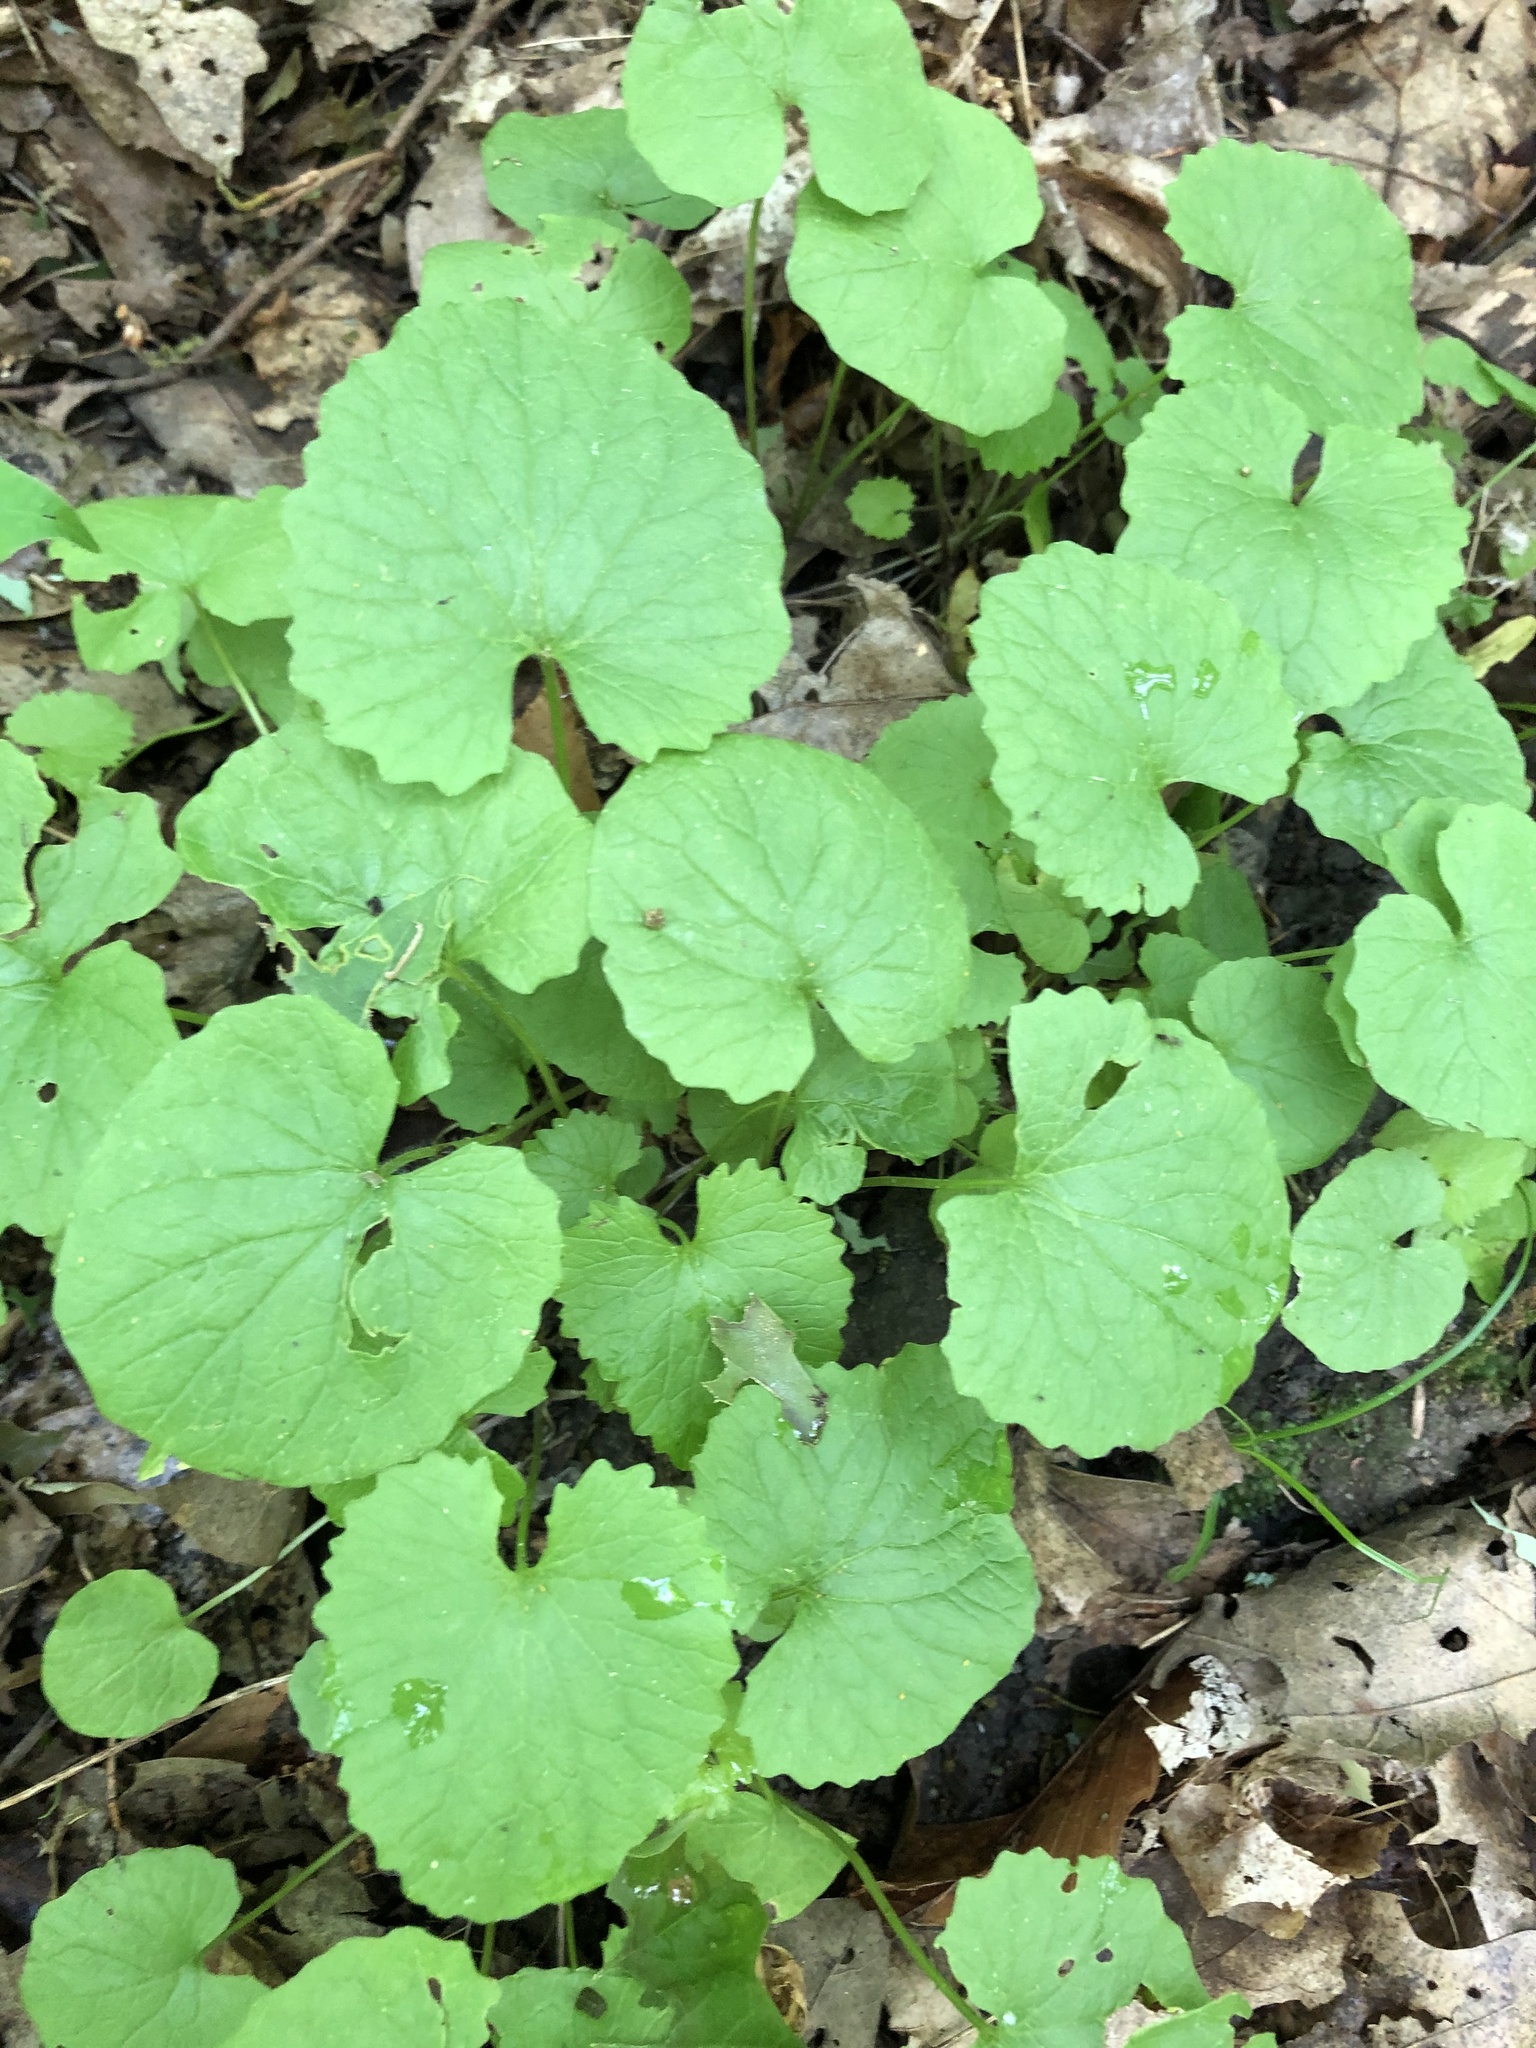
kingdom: Plantae
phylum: Tracheophyta
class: Magnoliopsida
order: Brassicales
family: Brassicaceae
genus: Alliaria
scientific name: Alliaria petiolata
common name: Garlic mustard
